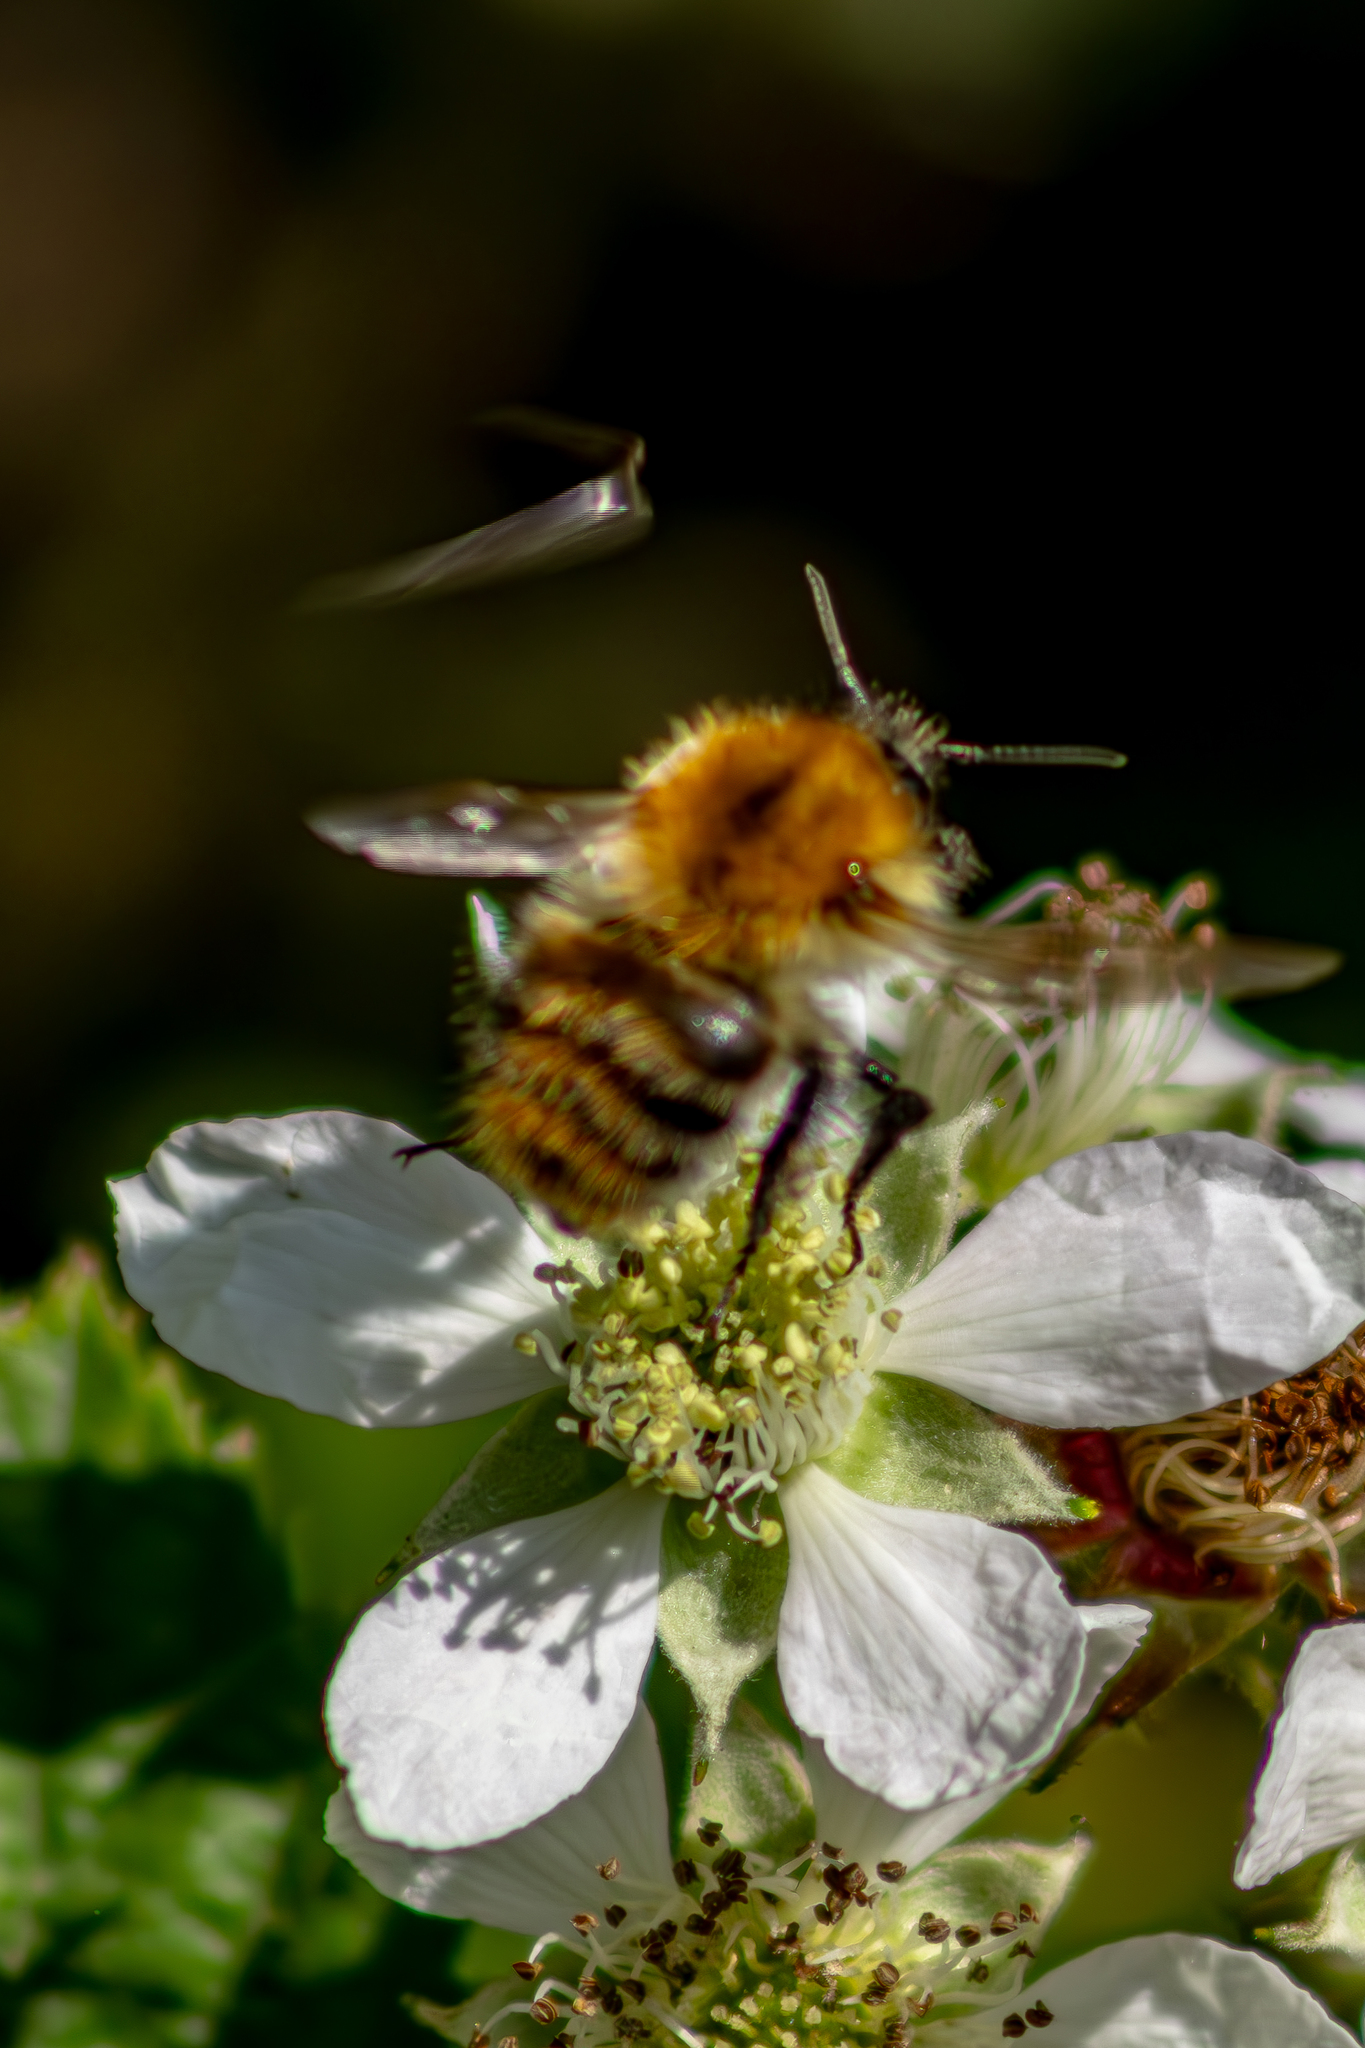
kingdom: Animalia
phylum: Arthropoda
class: Insecta
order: Hymenoptera
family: Apidae
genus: Bombus
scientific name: Bombus pascuorum
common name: Common carder bee
